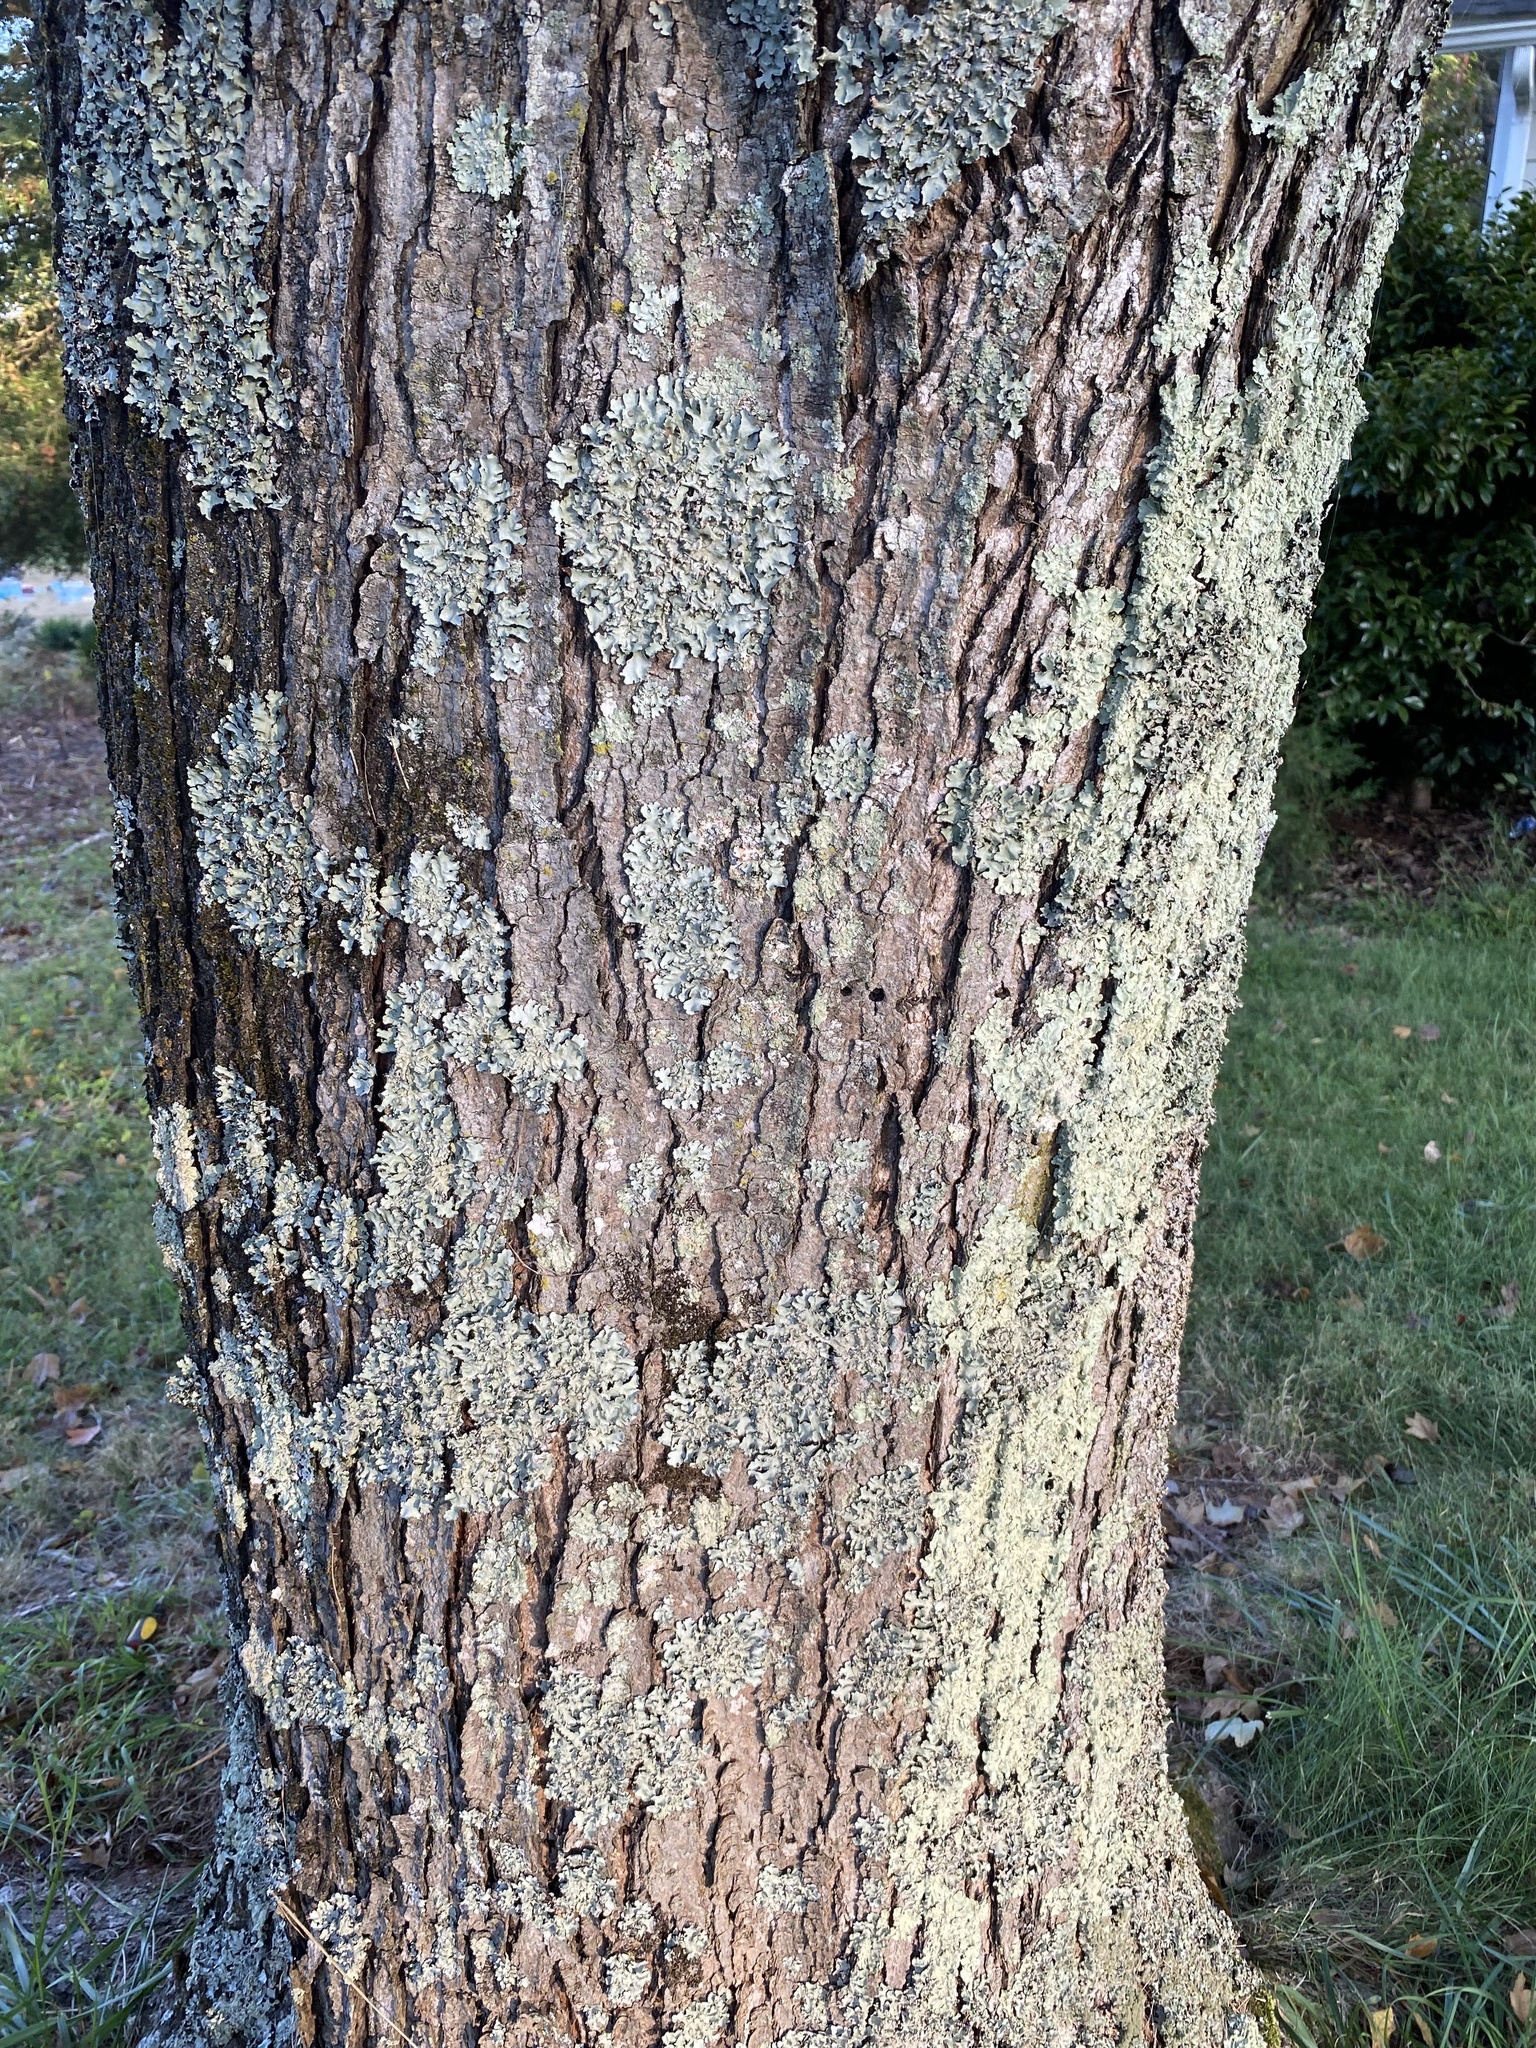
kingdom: Plantae
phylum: Tracheophyta
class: Magnoliopsida
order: Sapindales
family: Sapindaceae
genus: Acer
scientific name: Acer rubrum
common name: Red maple
